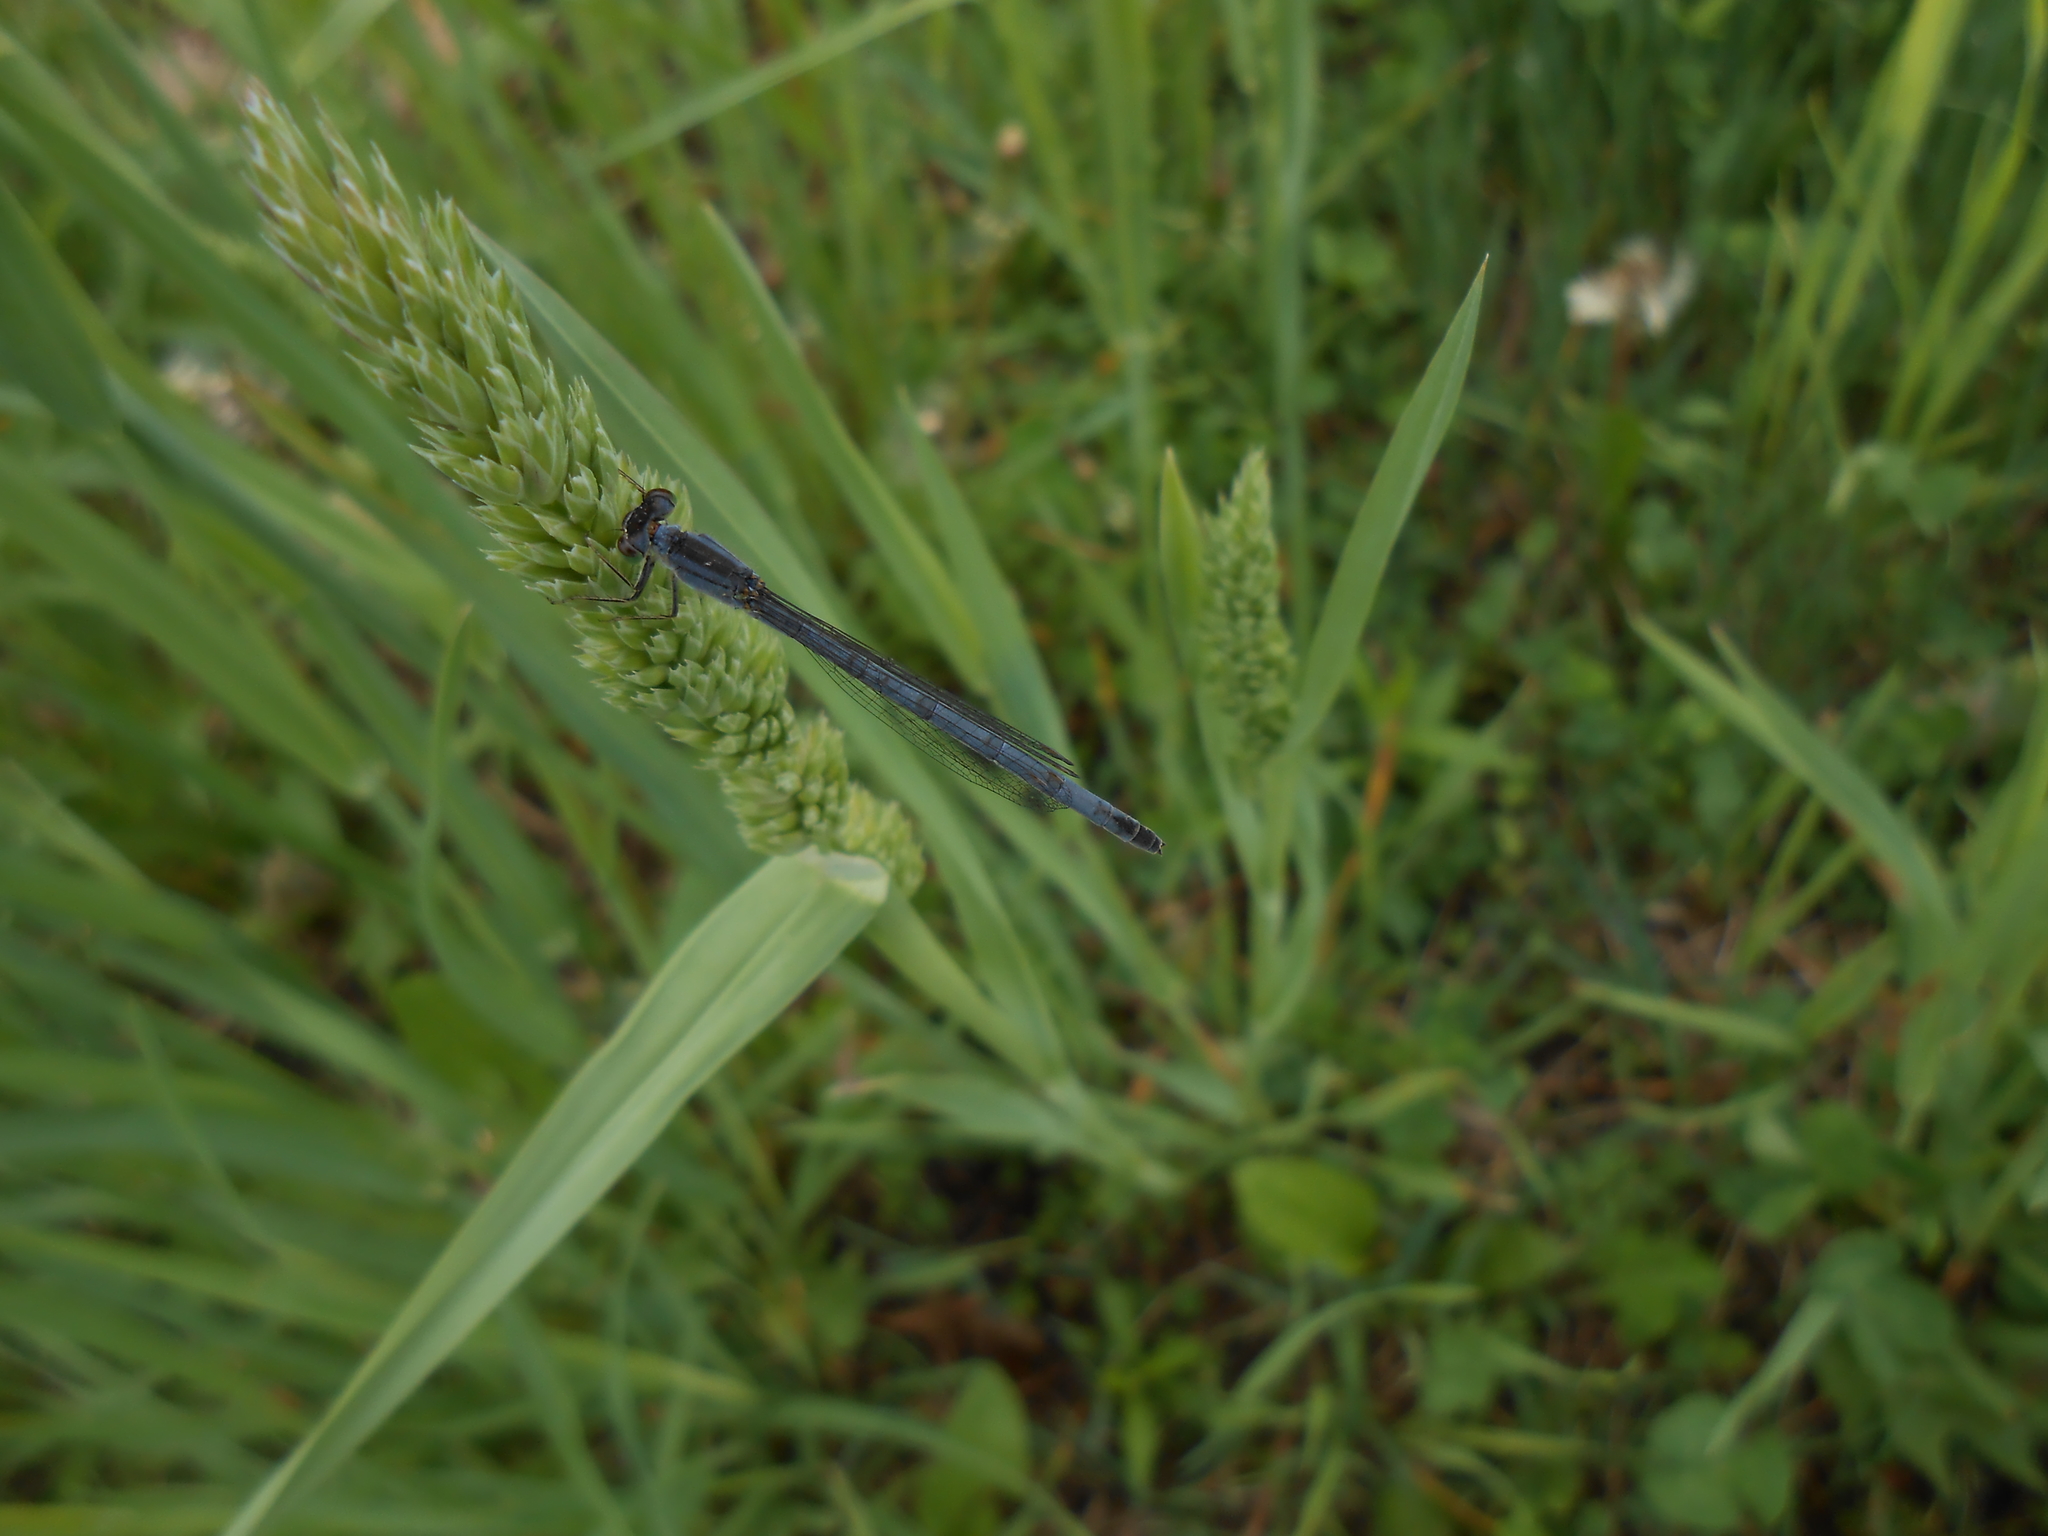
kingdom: Animalia
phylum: Arthropoda
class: Insecta
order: Odonata
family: Coenagrionidae
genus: Ischnura
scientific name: Ischnura verticalis
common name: Eastern forktail
